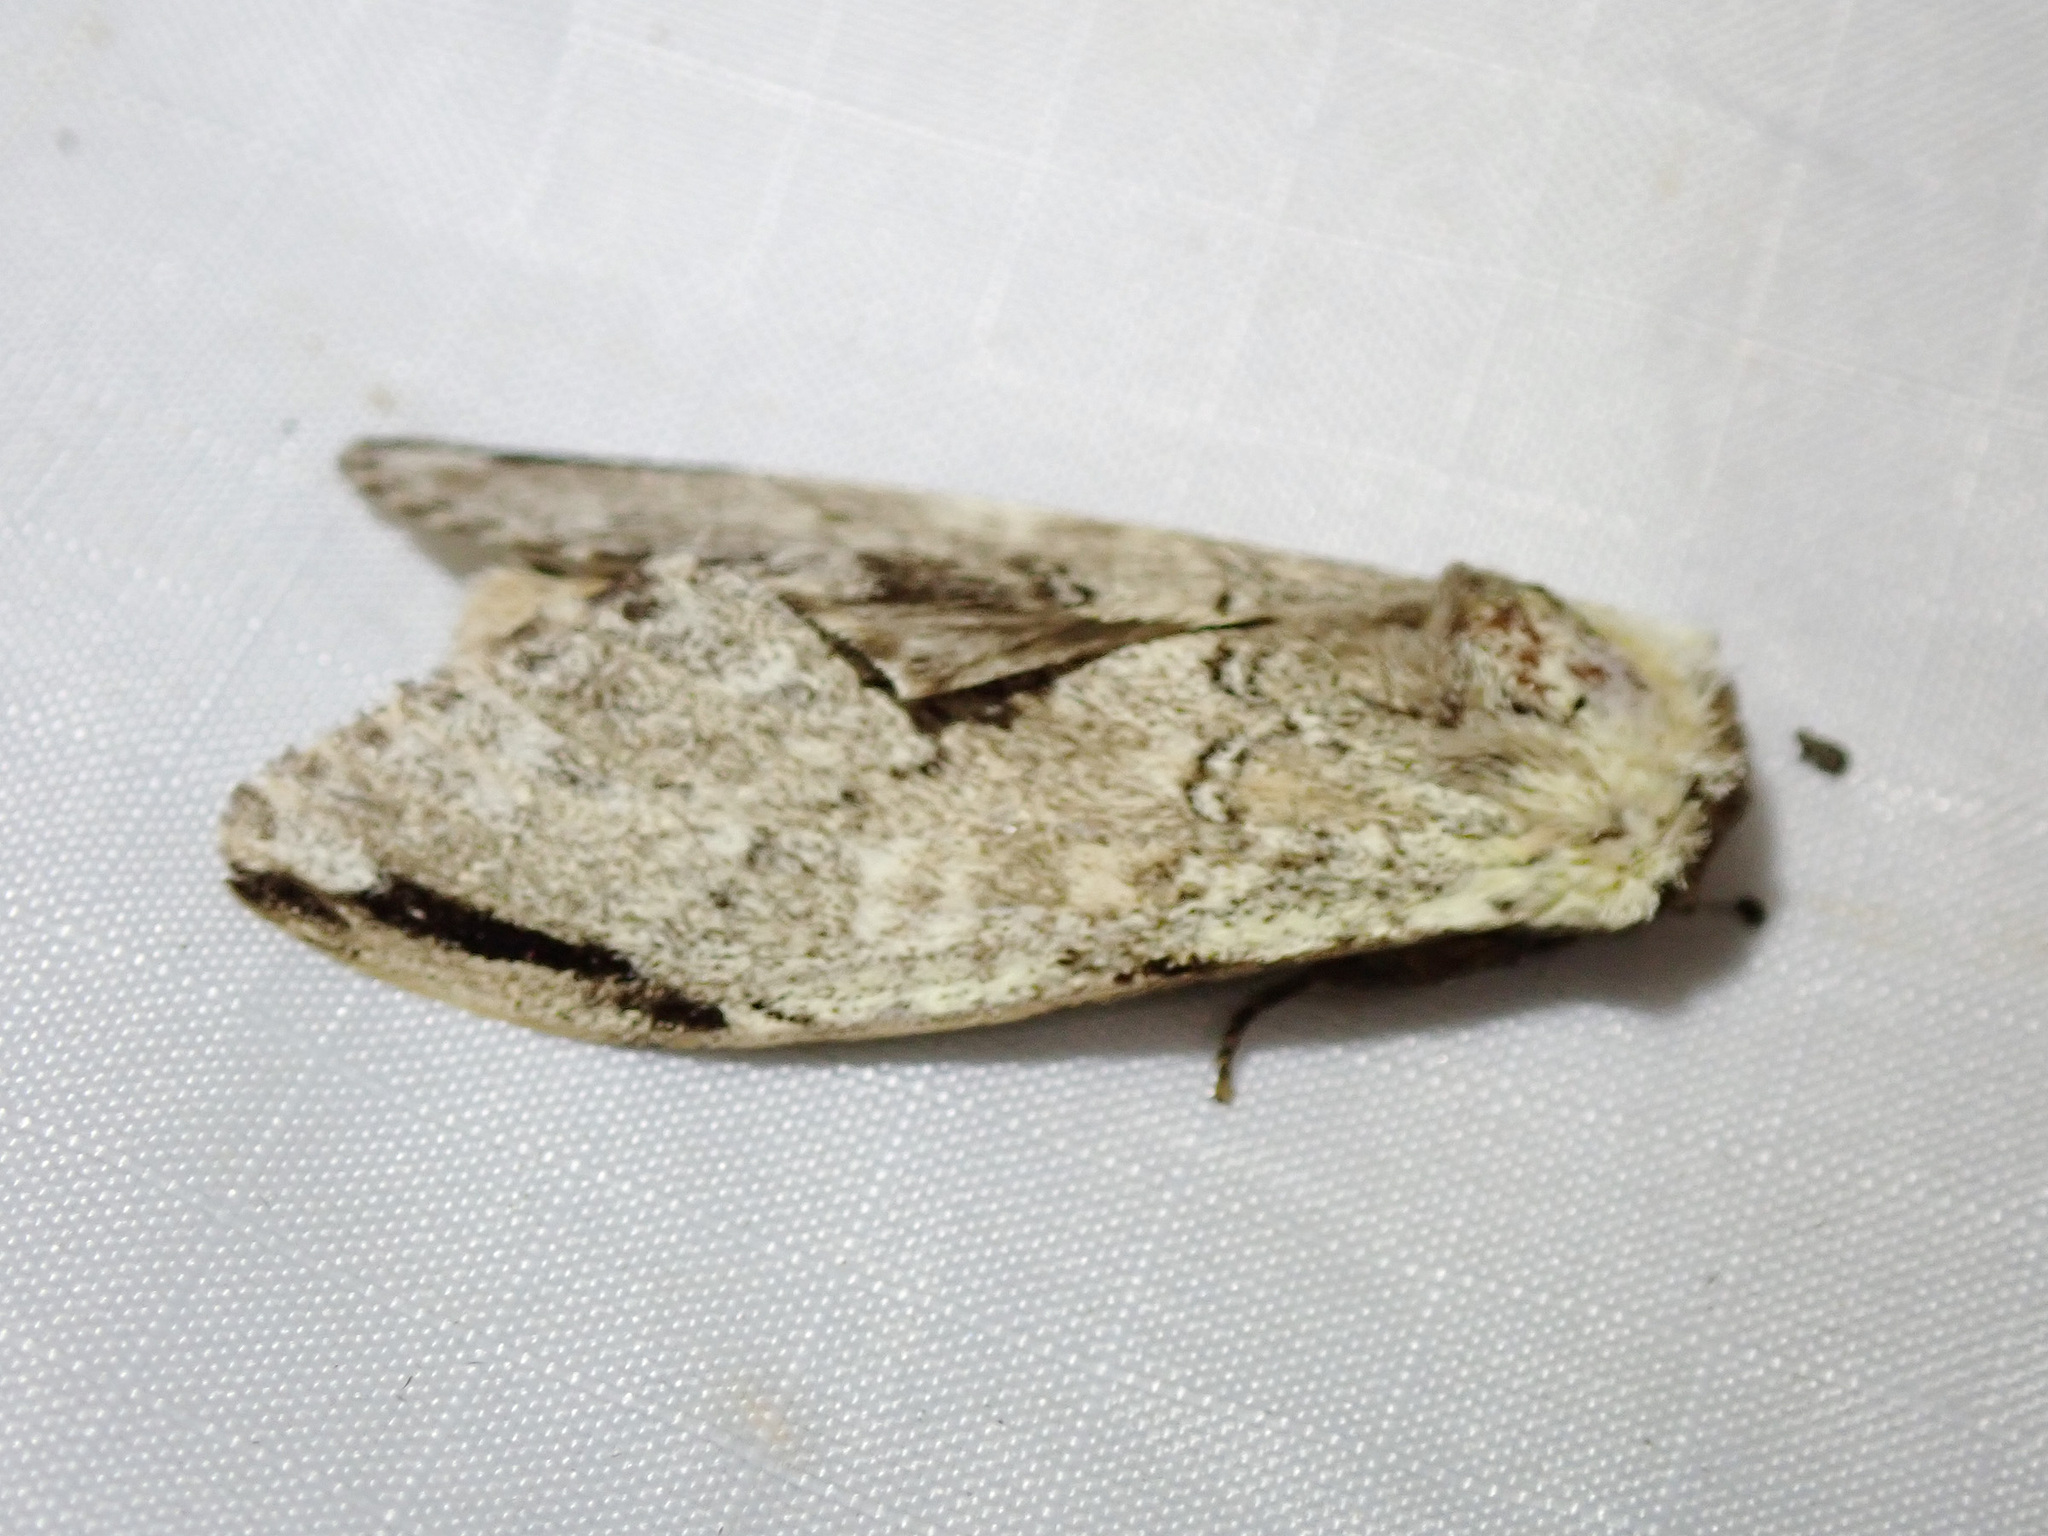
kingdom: Animalia
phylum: Arthropoda
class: Insecta
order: Lepidoptera
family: Notodontidae
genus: Stauroplitis
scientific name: Stauroplitis accomodus
